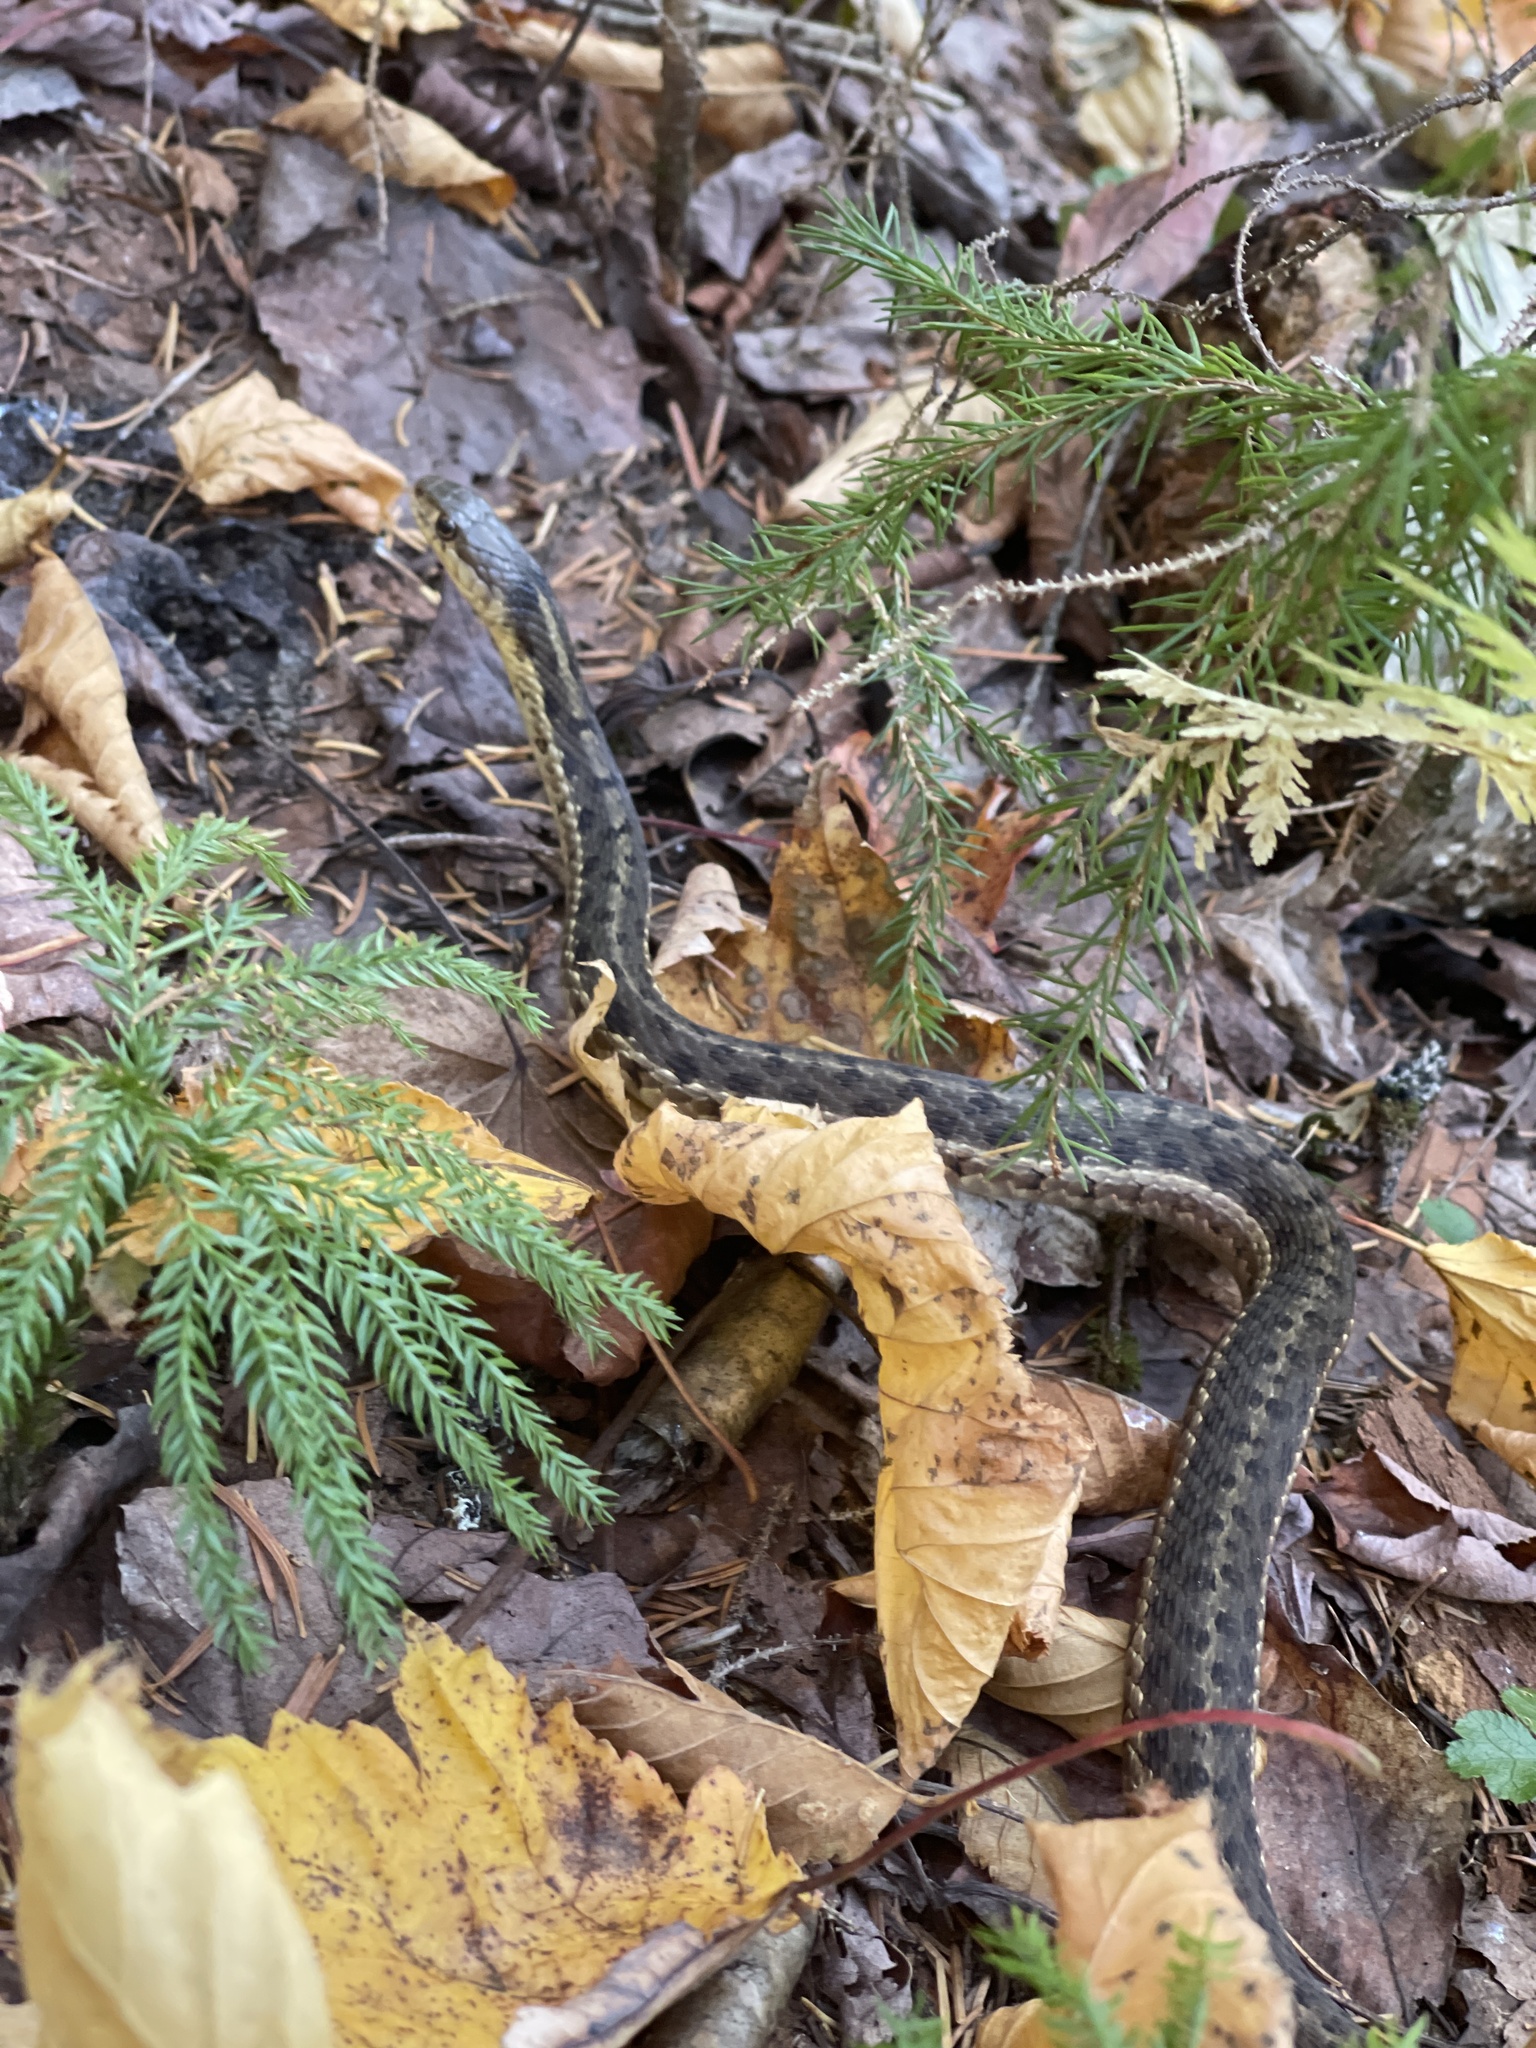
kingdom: Animalia
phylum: Chordata
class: Squamata
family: Colubridae
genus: Thamnophis
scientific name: Thamnophis sirtalis
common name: Common garter snake
